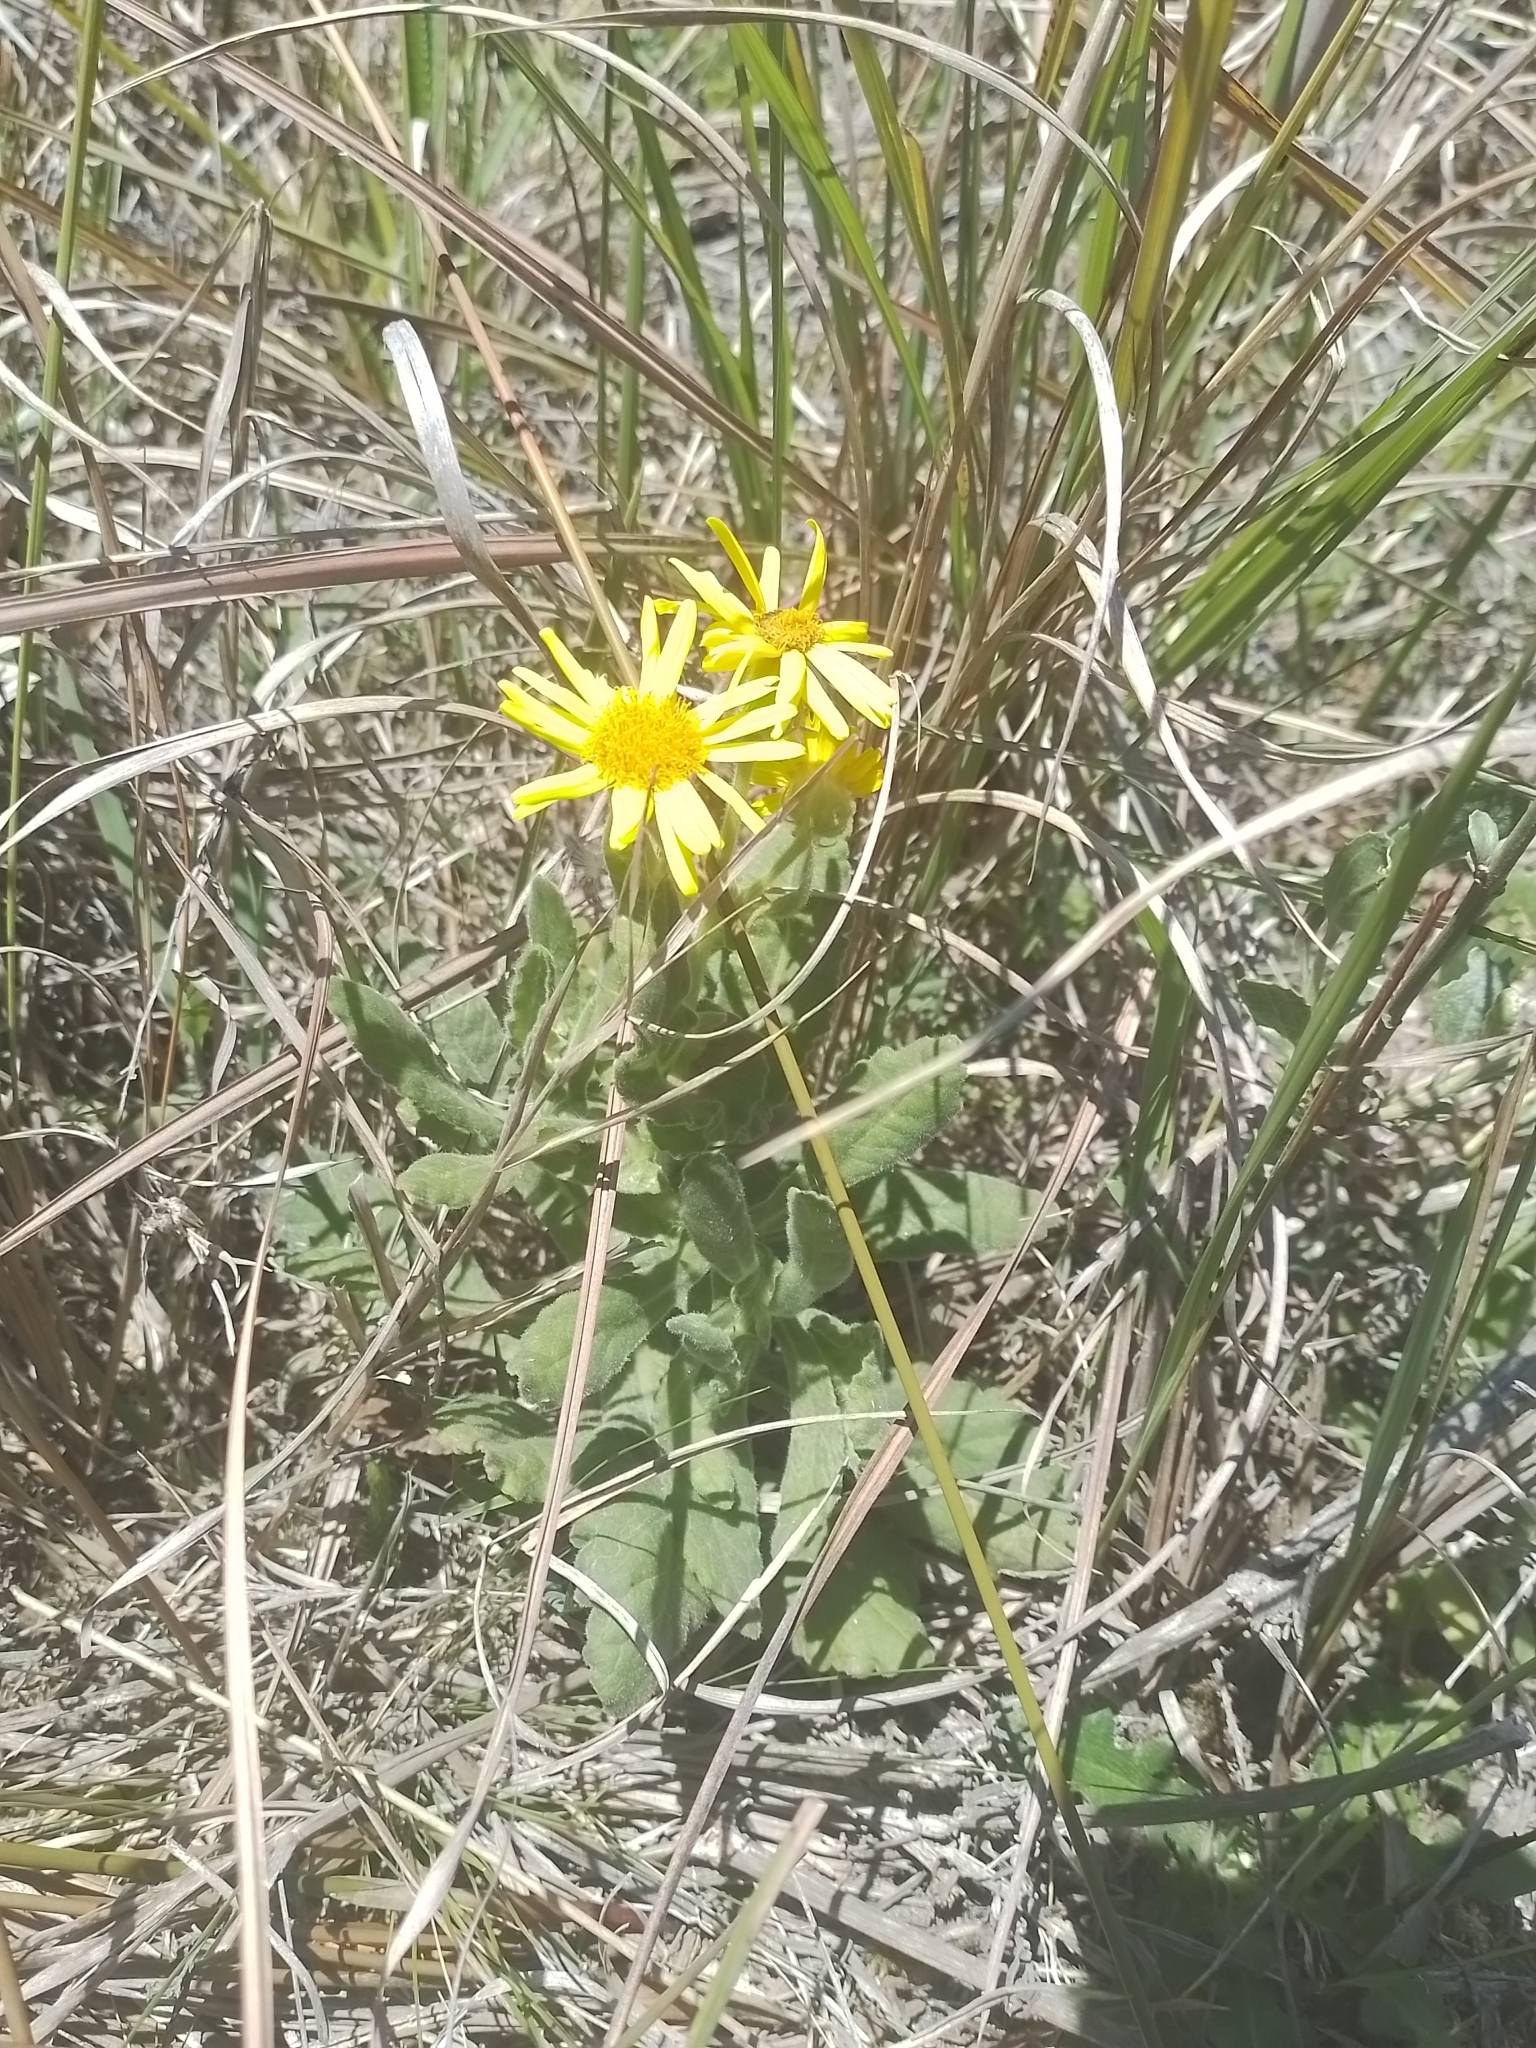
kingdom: Plantae
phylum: Tracheophyta
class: Magnoliopsida
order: Asterales
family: Asteraceae
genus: Senecio
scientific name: Senecio selloi
